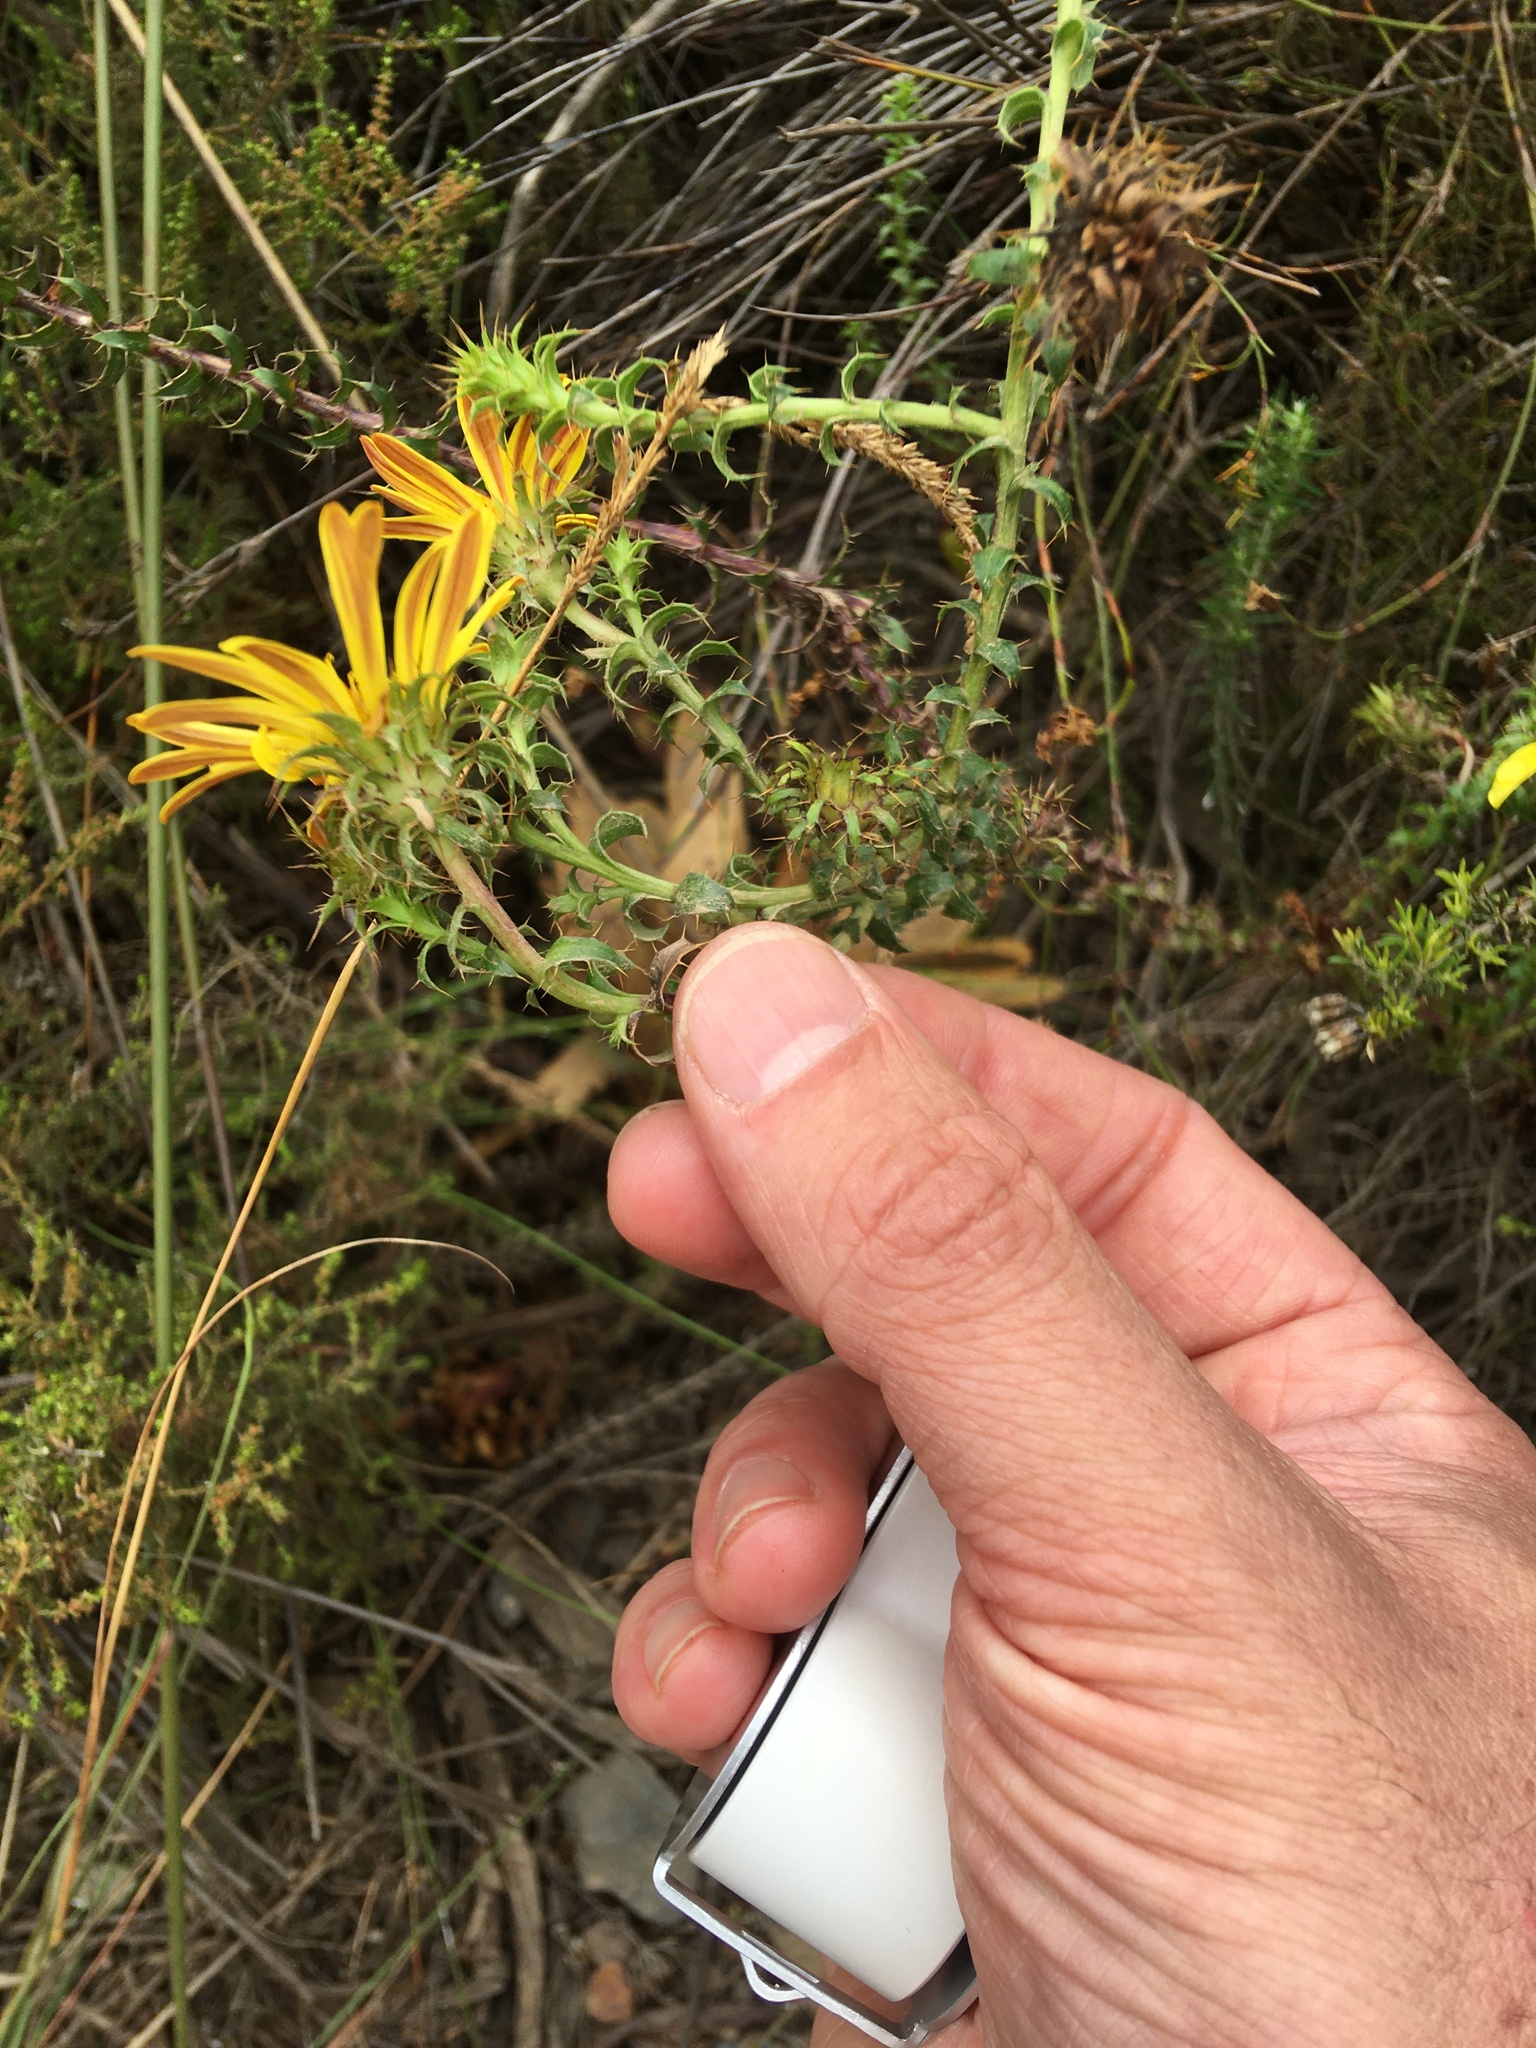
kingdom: Plantae
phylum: Tracheophyta
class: Magnoliopsida
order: Asterales
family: Asteraceae
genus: Cullumia
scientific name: Cullumia setosa
